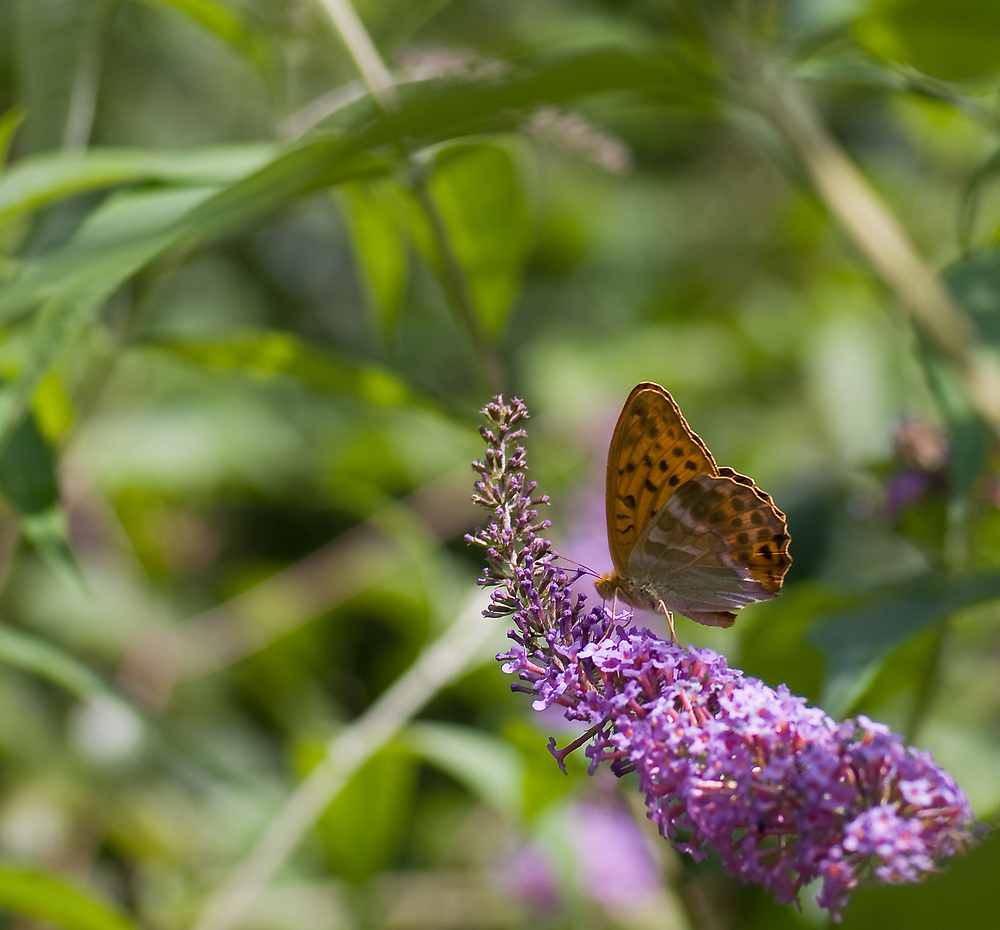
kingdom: Animalia
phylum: Arthropoda
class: Insecta
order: Lepidoptera
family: Nymphalidae
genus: Argynnis
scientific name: Argynnis paphia
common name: Silver-washed fritillary
